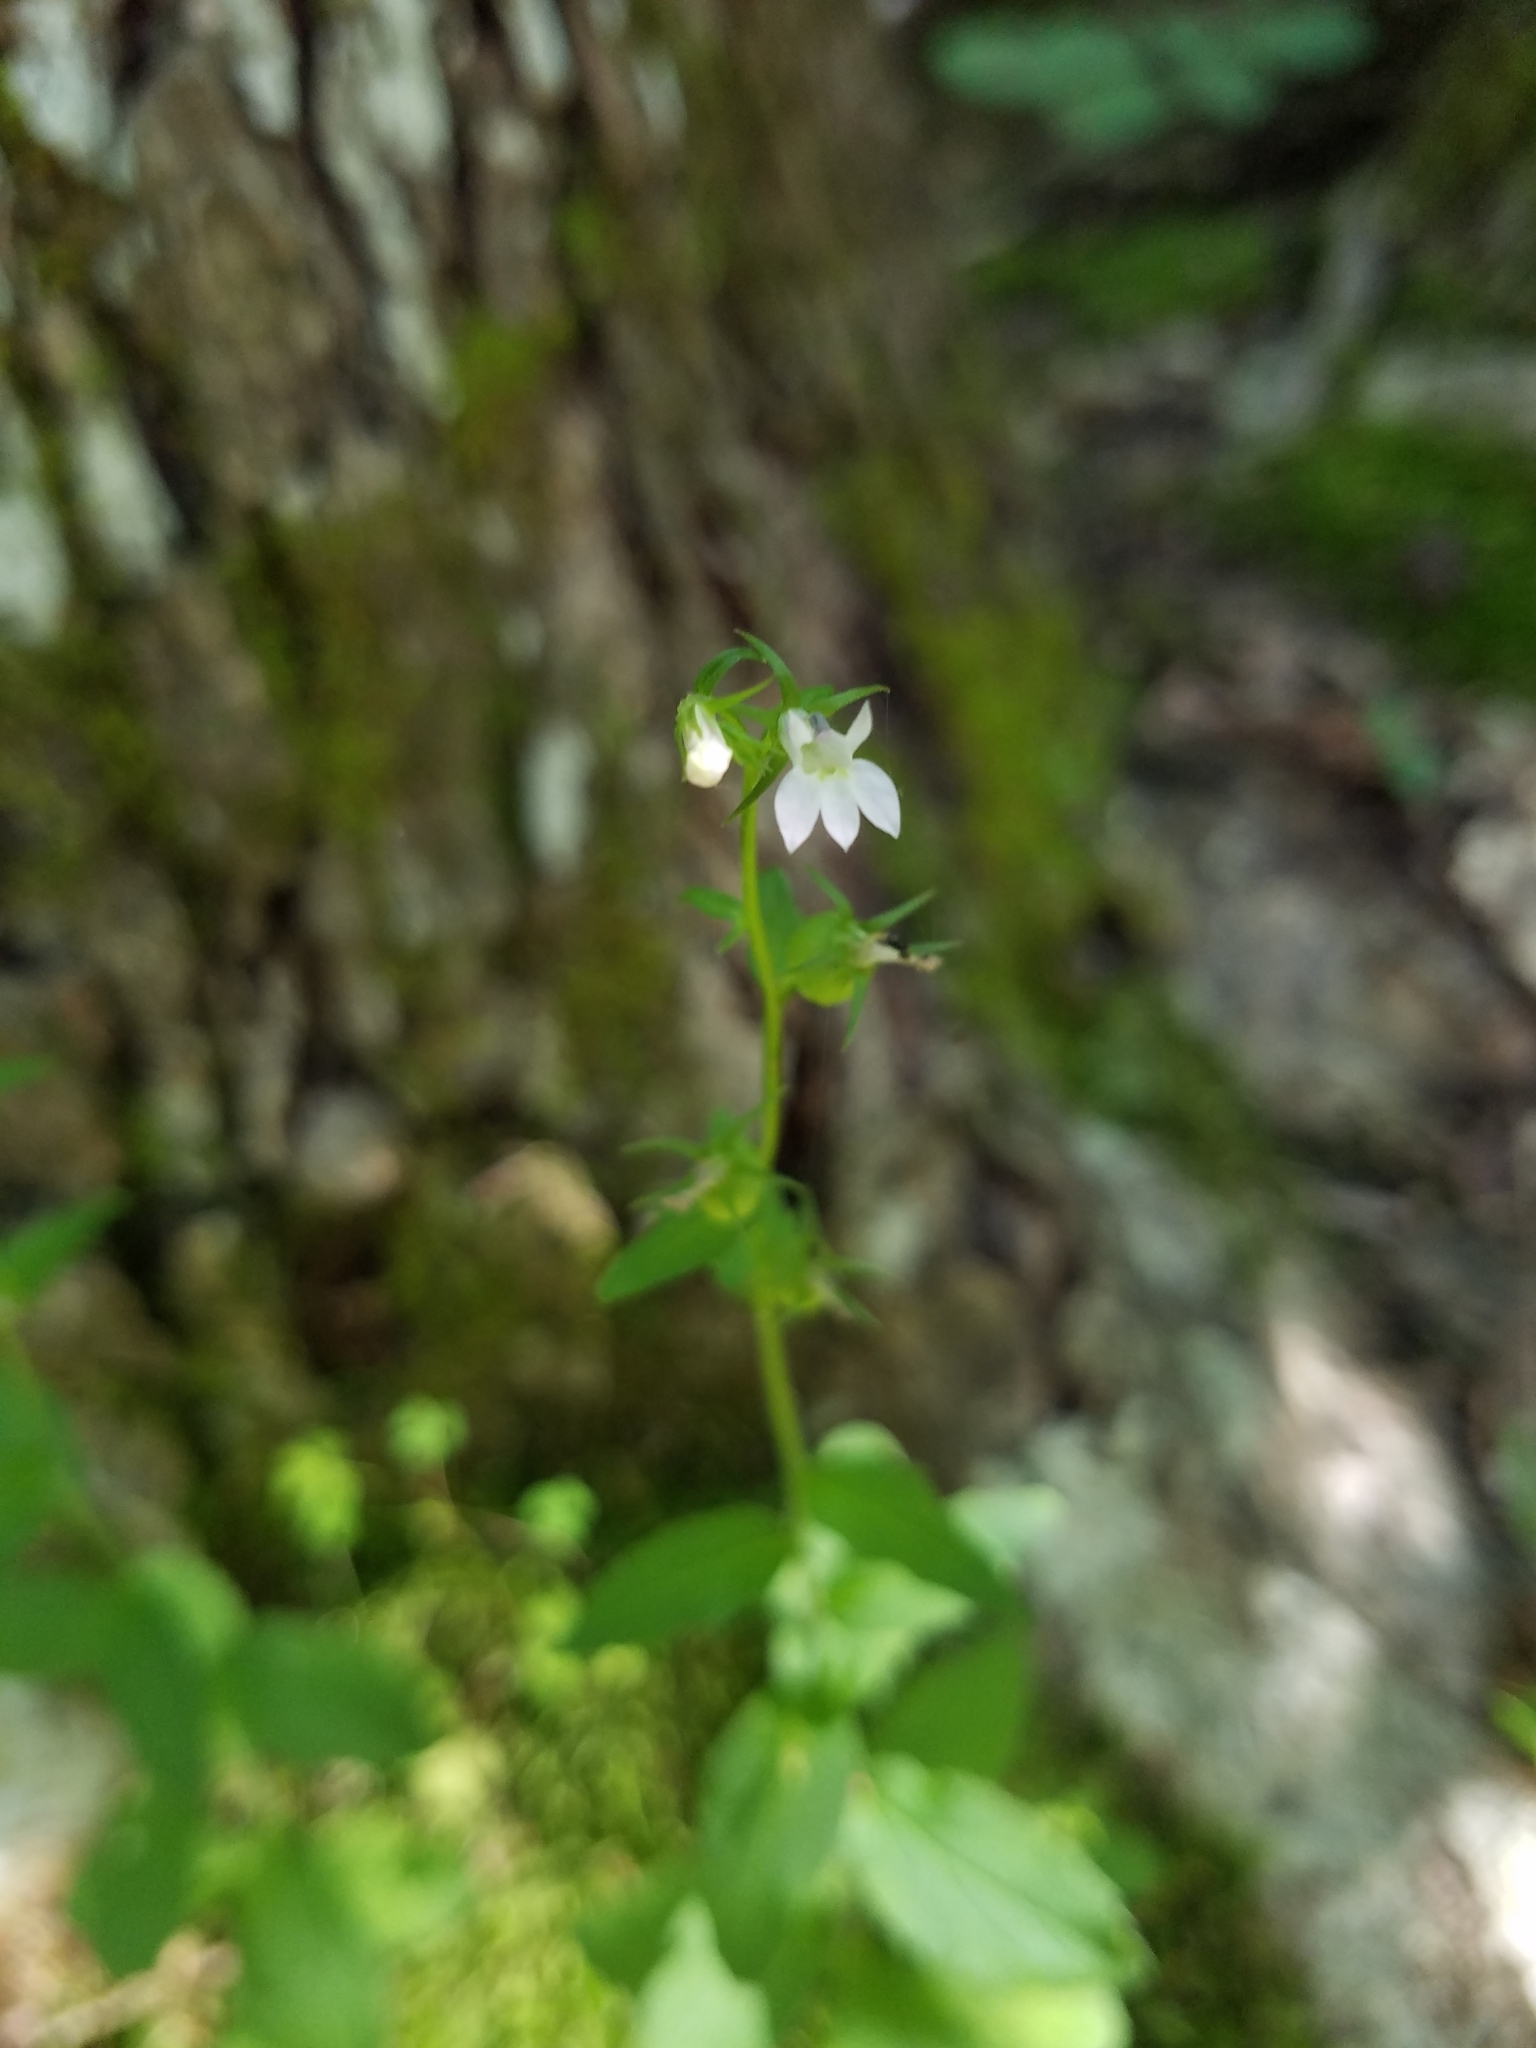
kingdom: Plantae
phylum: Tracheophyta
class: Magnoliopsida
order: Asterales
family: Campanulaceae
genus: Lobelia
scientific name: Lobelia inflata
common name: Indian tobacco
